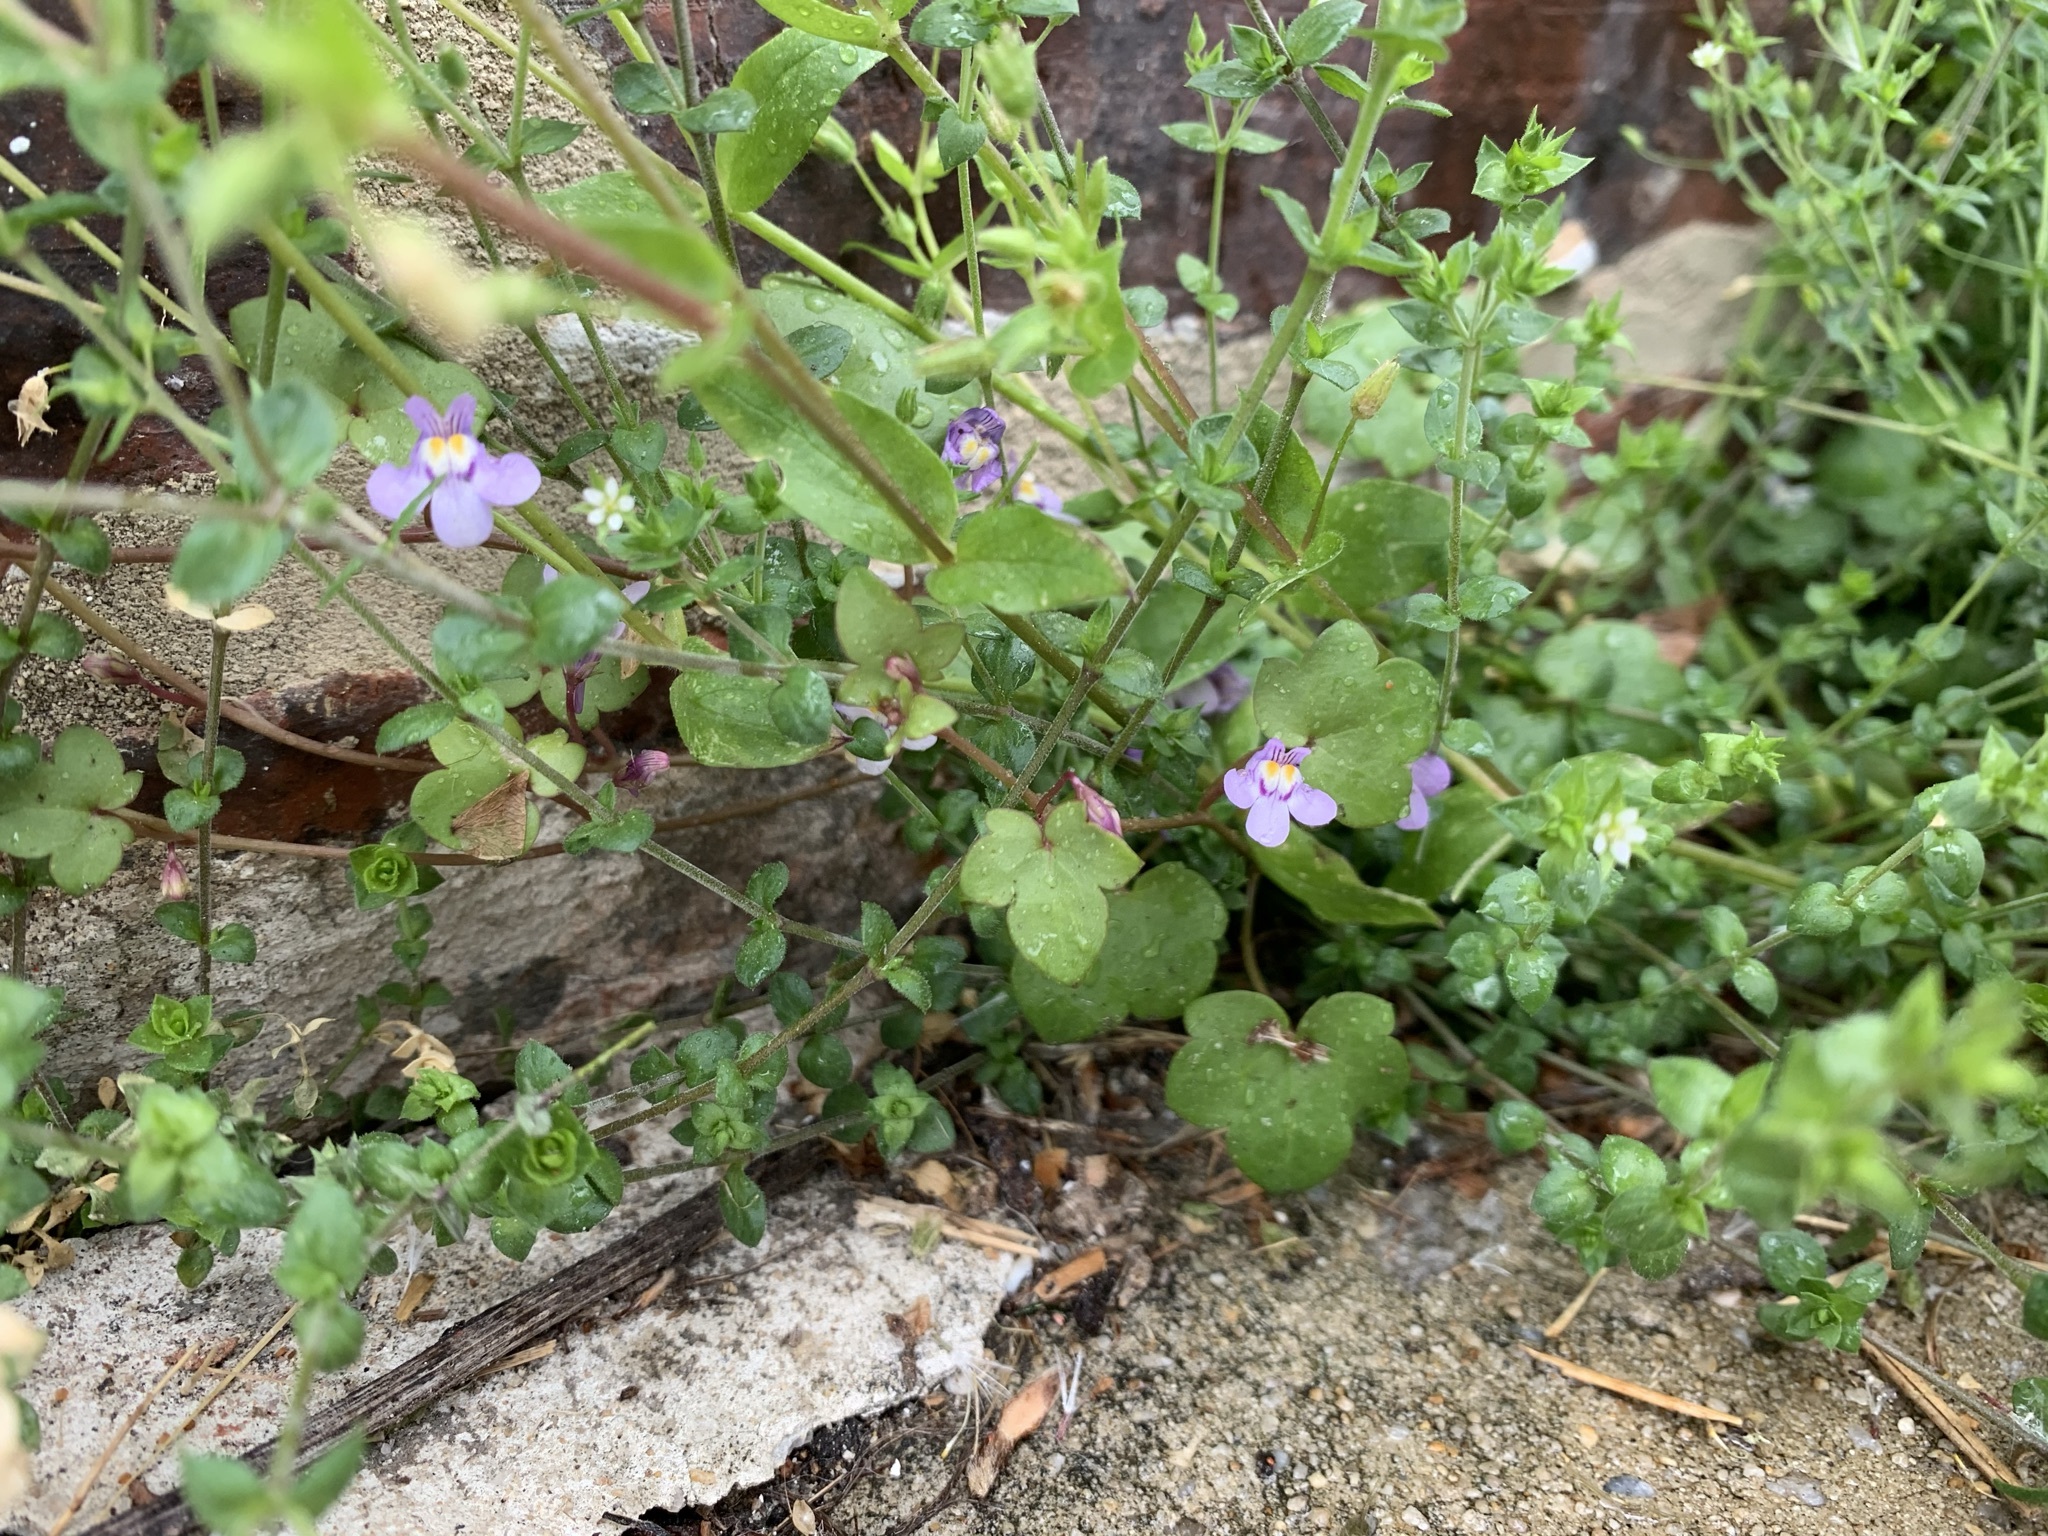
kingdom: Plantae
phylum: Tracheophyta
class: Magnoliopsida
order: Lamiales
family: Plantaginaceae
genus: Cymbalaria
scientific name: Cymbalaria muralis
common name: Ivy-leaved toadflax
